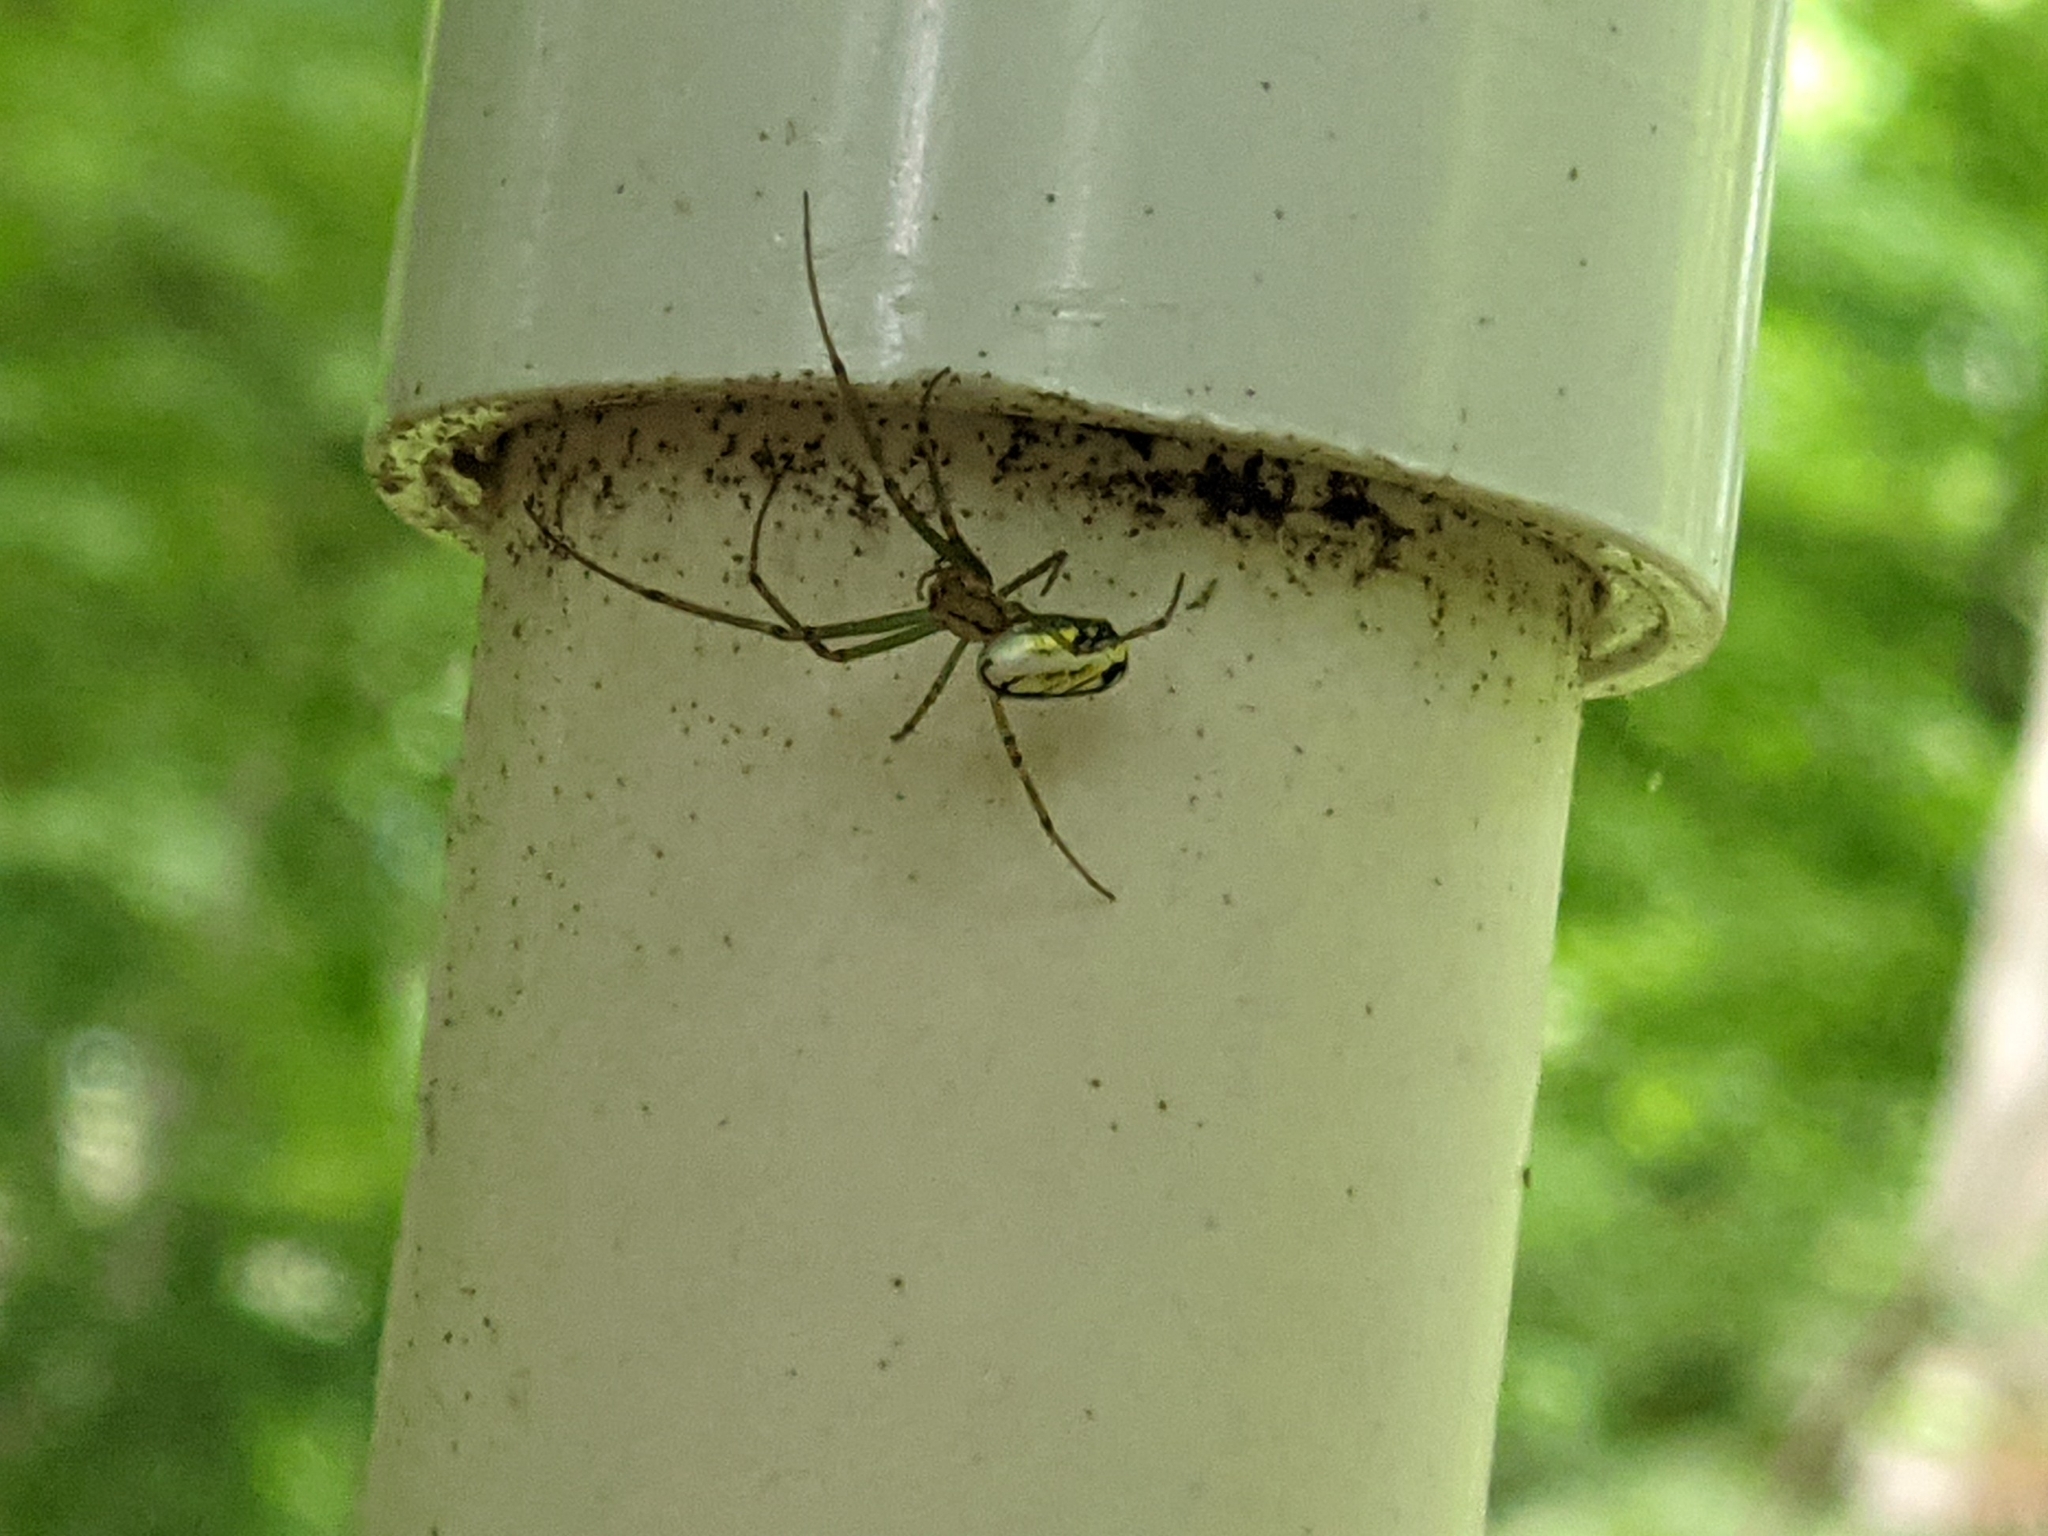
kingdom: Animalia
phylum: Arthropoda
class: Arachnida
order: Araneae
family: Tetragnathidae
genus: Leucauge
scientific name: Leucauge venusta
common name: Longjawed orb weavers
